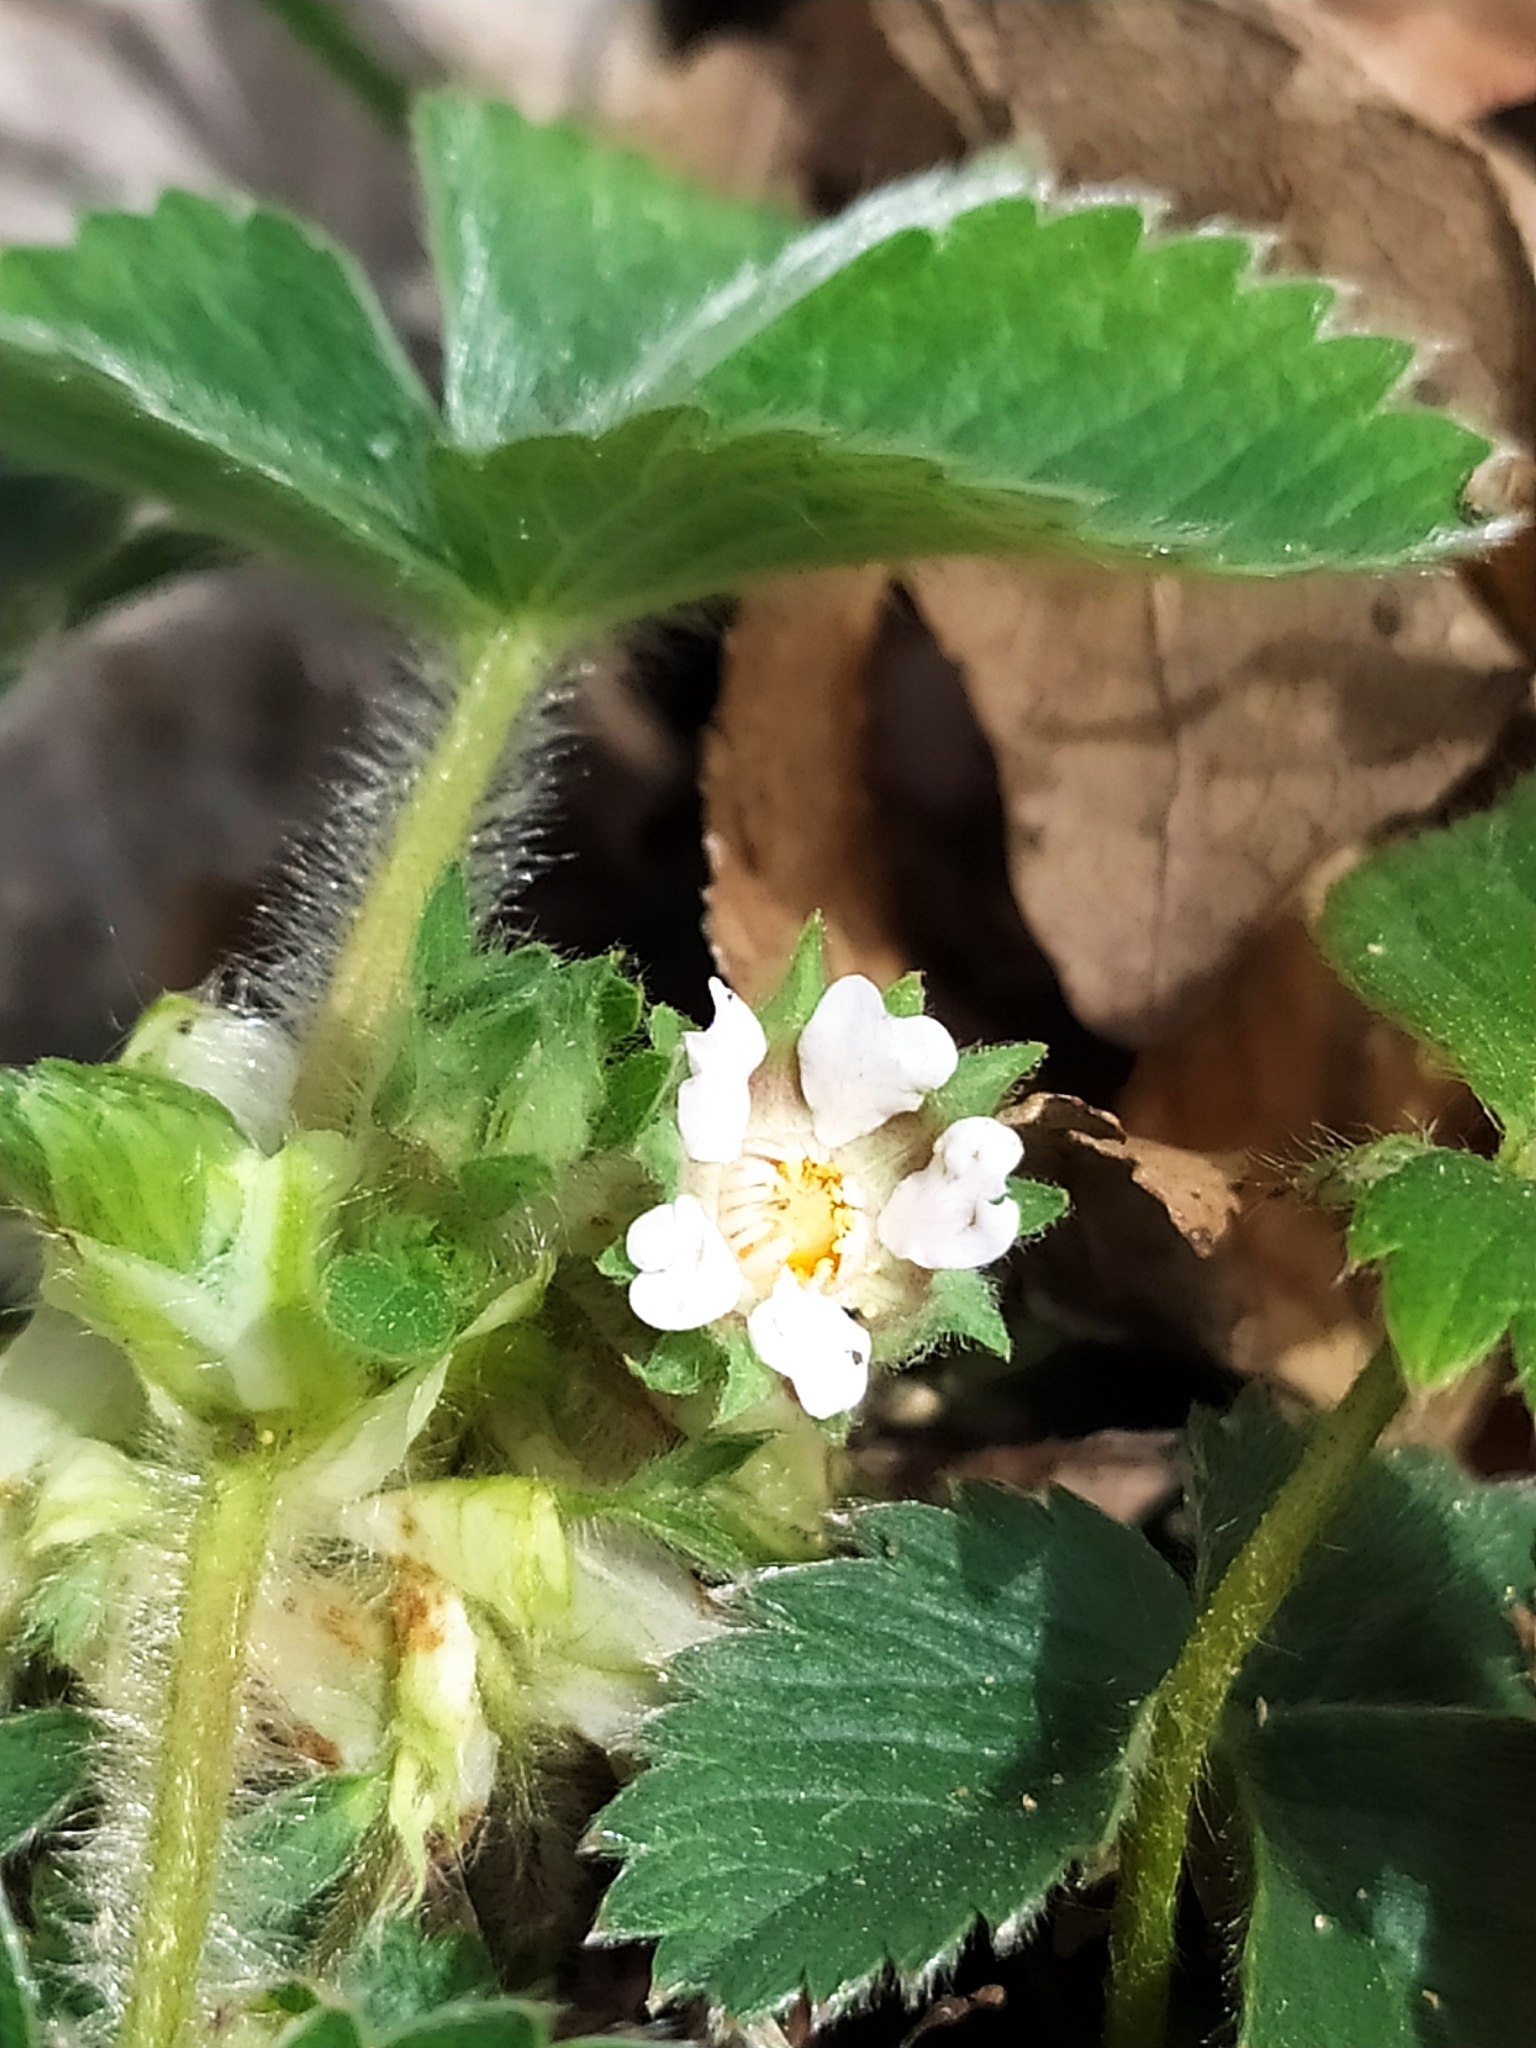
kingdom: Plantae
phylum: Tracheophyta
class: Magnoliopsida
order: Rosales
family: Rosaceae
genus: Potentilla
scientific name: Potentilla micrantha
